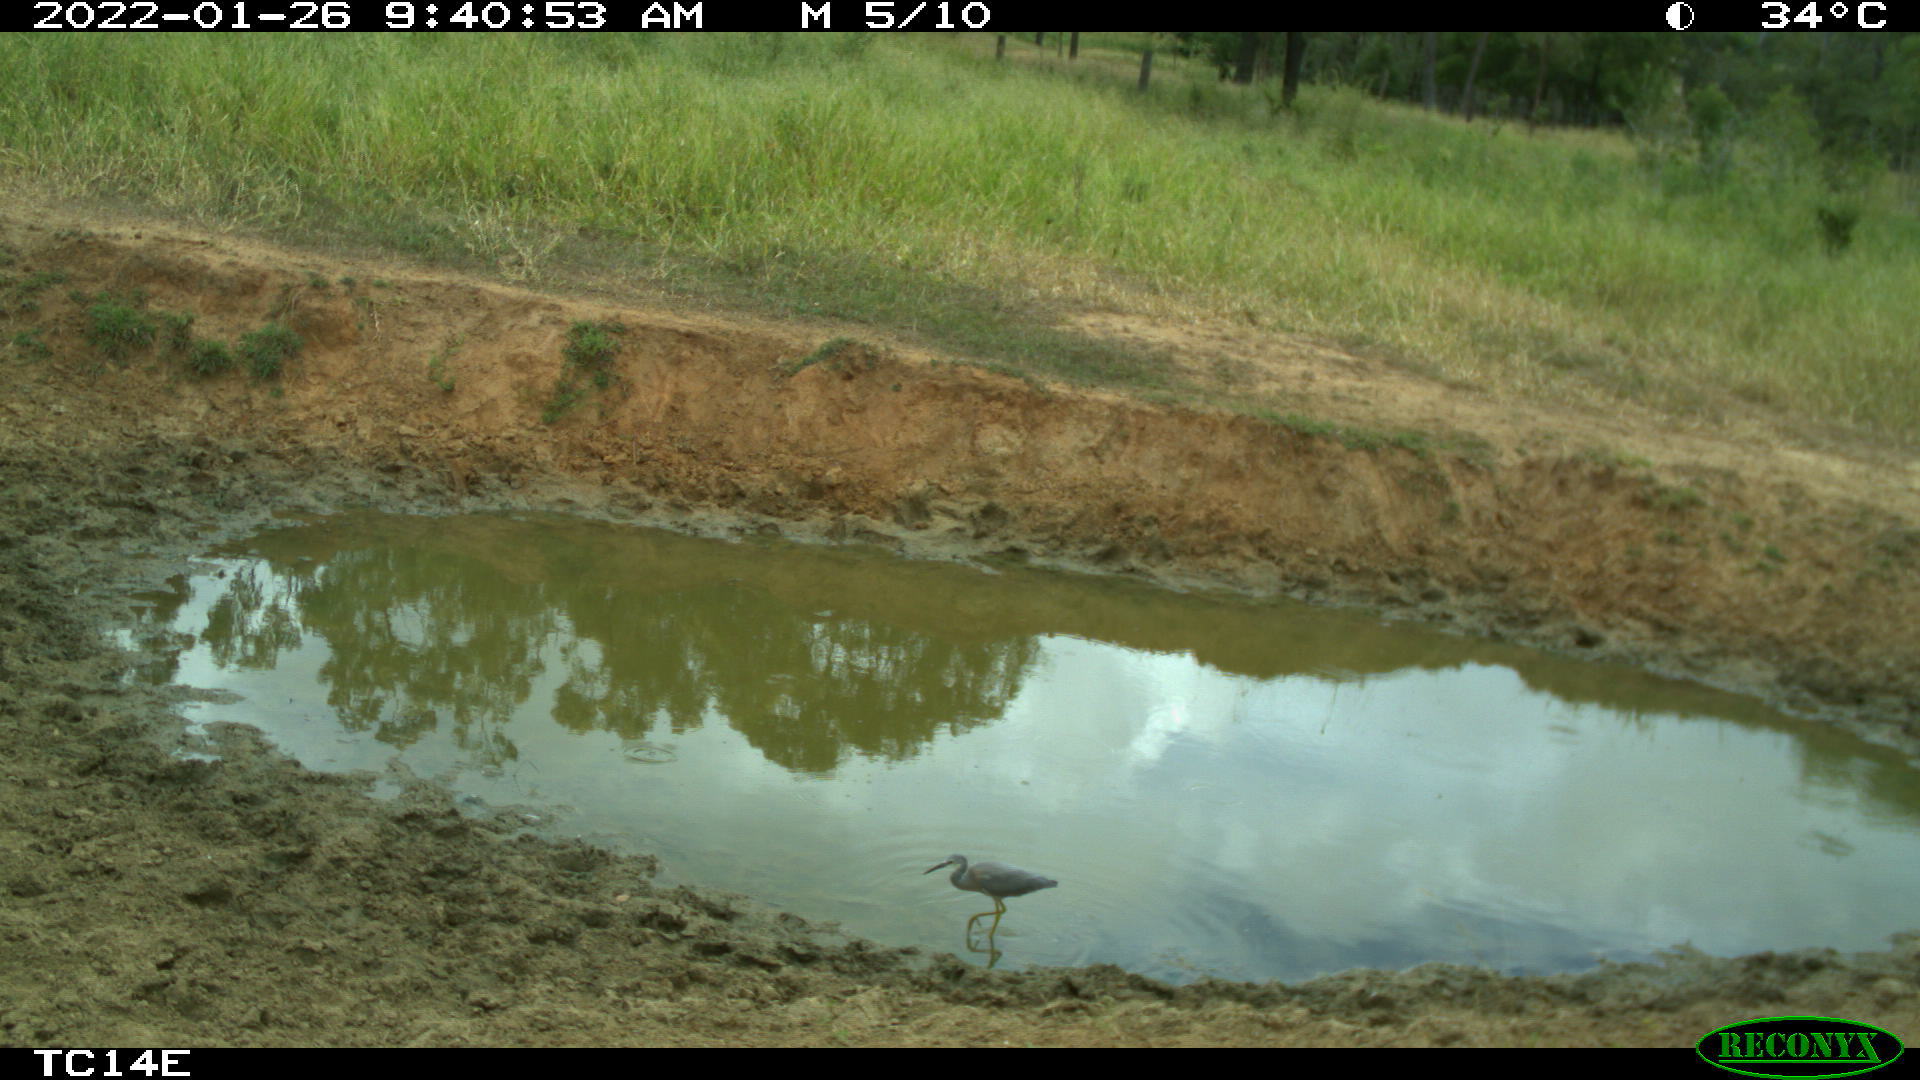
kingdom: Animalia
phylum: Chordata
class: Aves
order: Pelecaniformes
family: Ardeidae
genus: Egretta
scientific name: Egretta novaehollandiae
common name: White-faced heron
